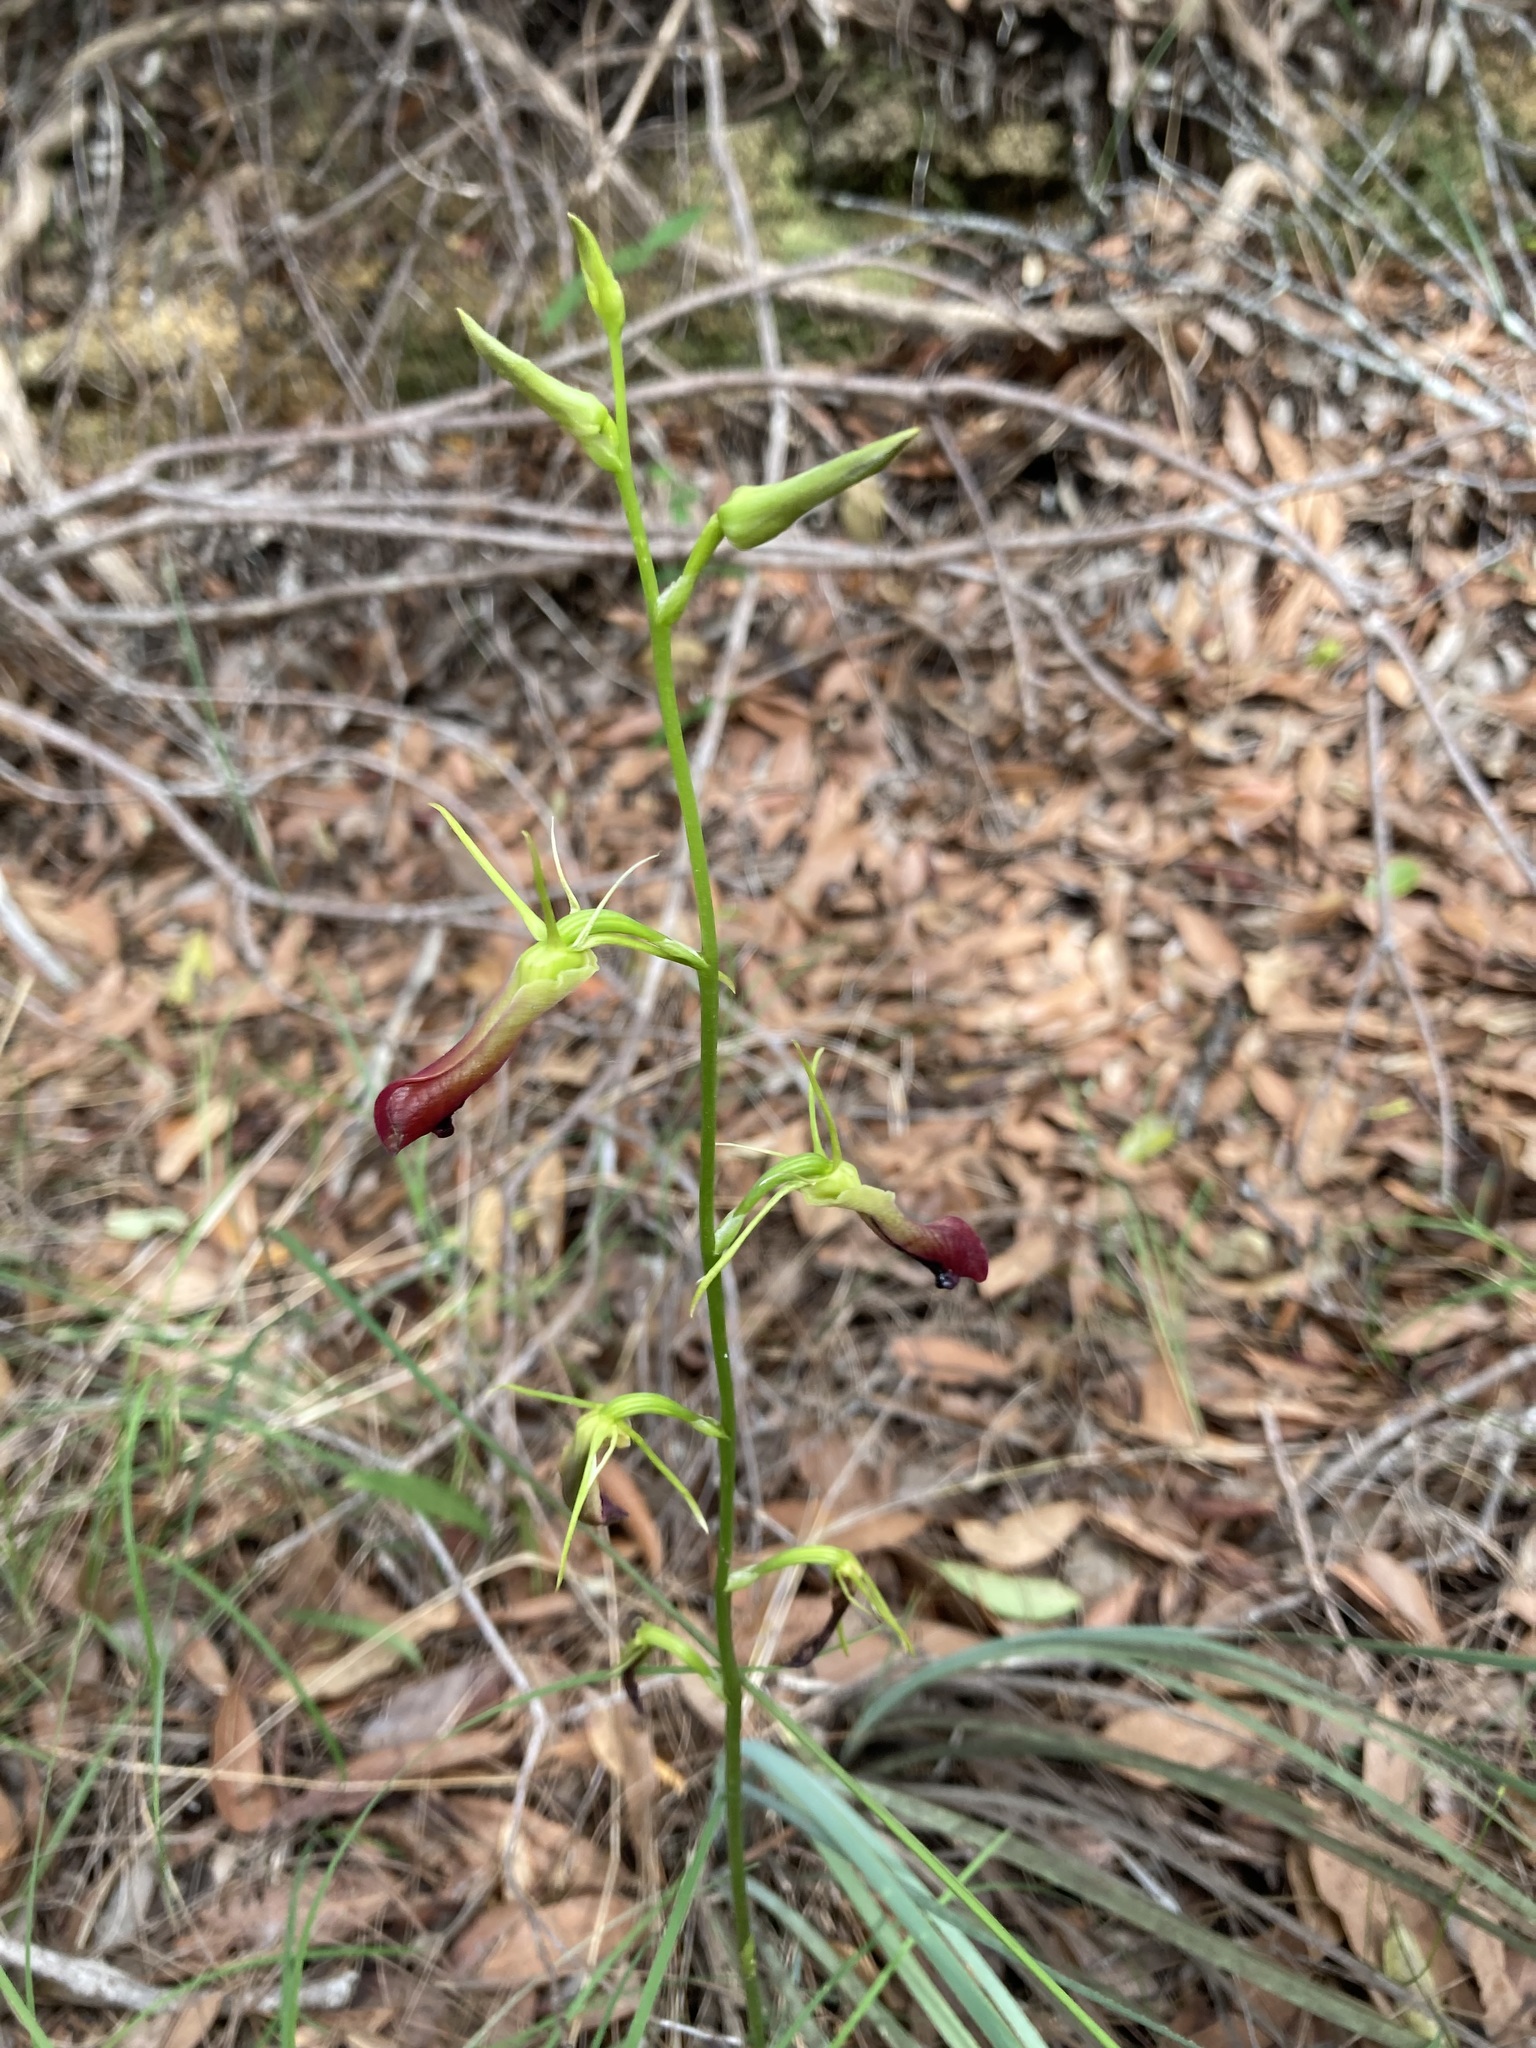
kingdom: Plantae
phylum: Tracheophyta
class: Liliopsida
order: Asparagales
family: Orchidaceae
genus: Cryptostylis
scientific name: Cryptostylis subulata
